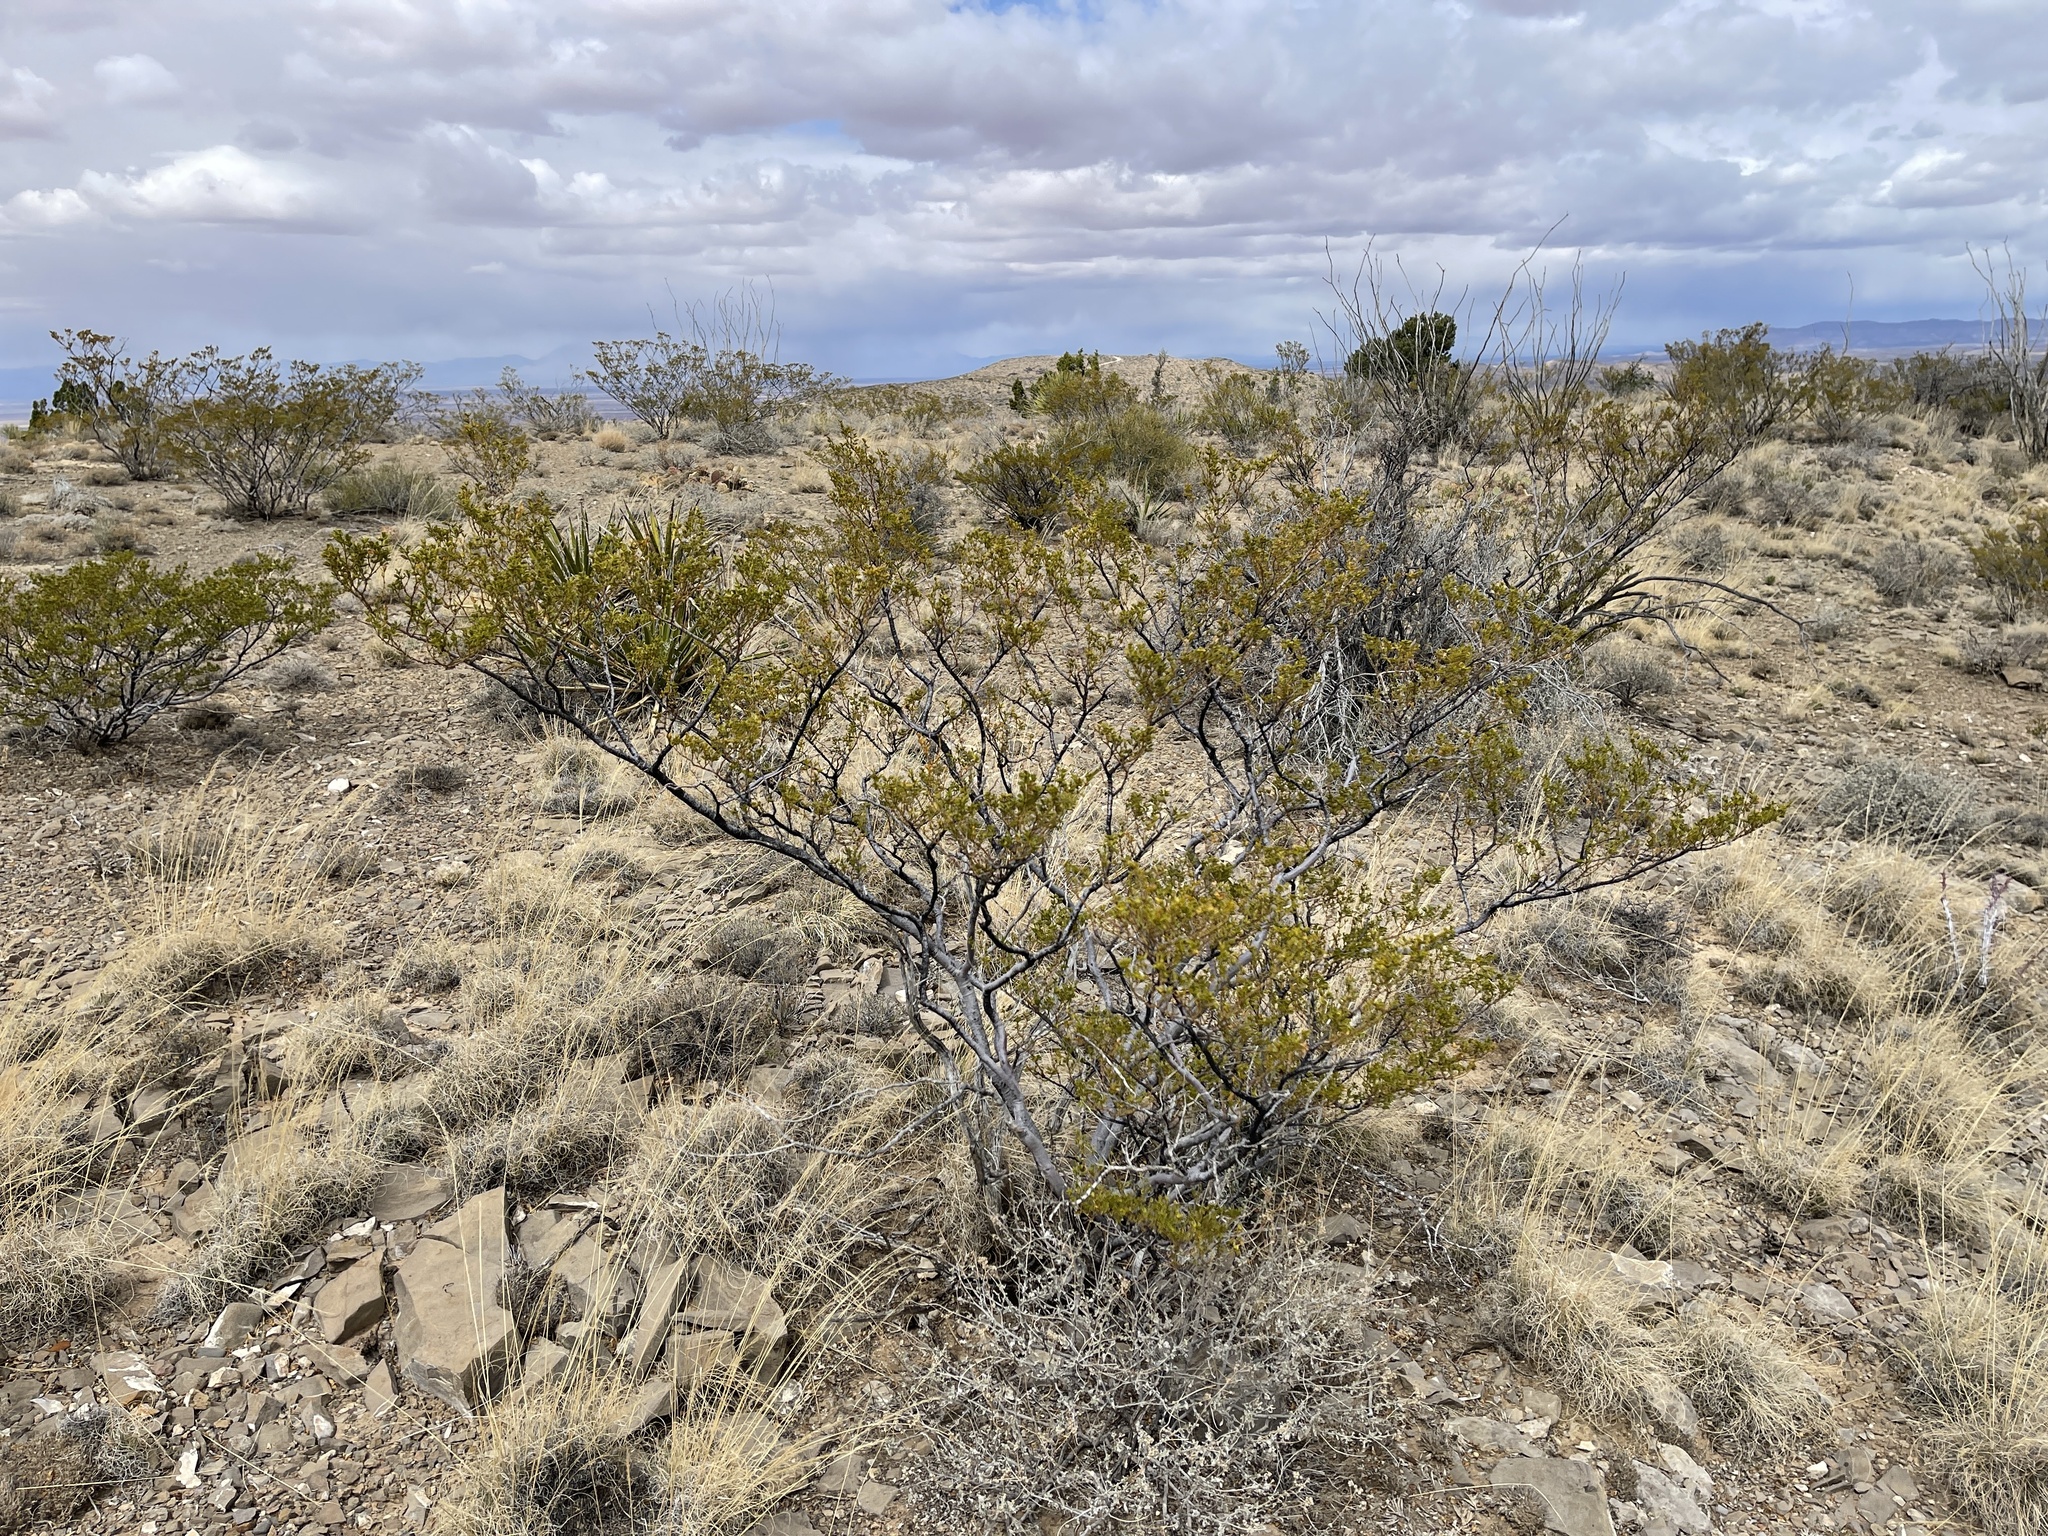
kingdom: Plantae
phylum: Tracheophyta
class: Magnoliopsida
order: Zygophyllales
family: Zygophyllaceae
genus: Larrea
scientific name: Larrea tridentata
